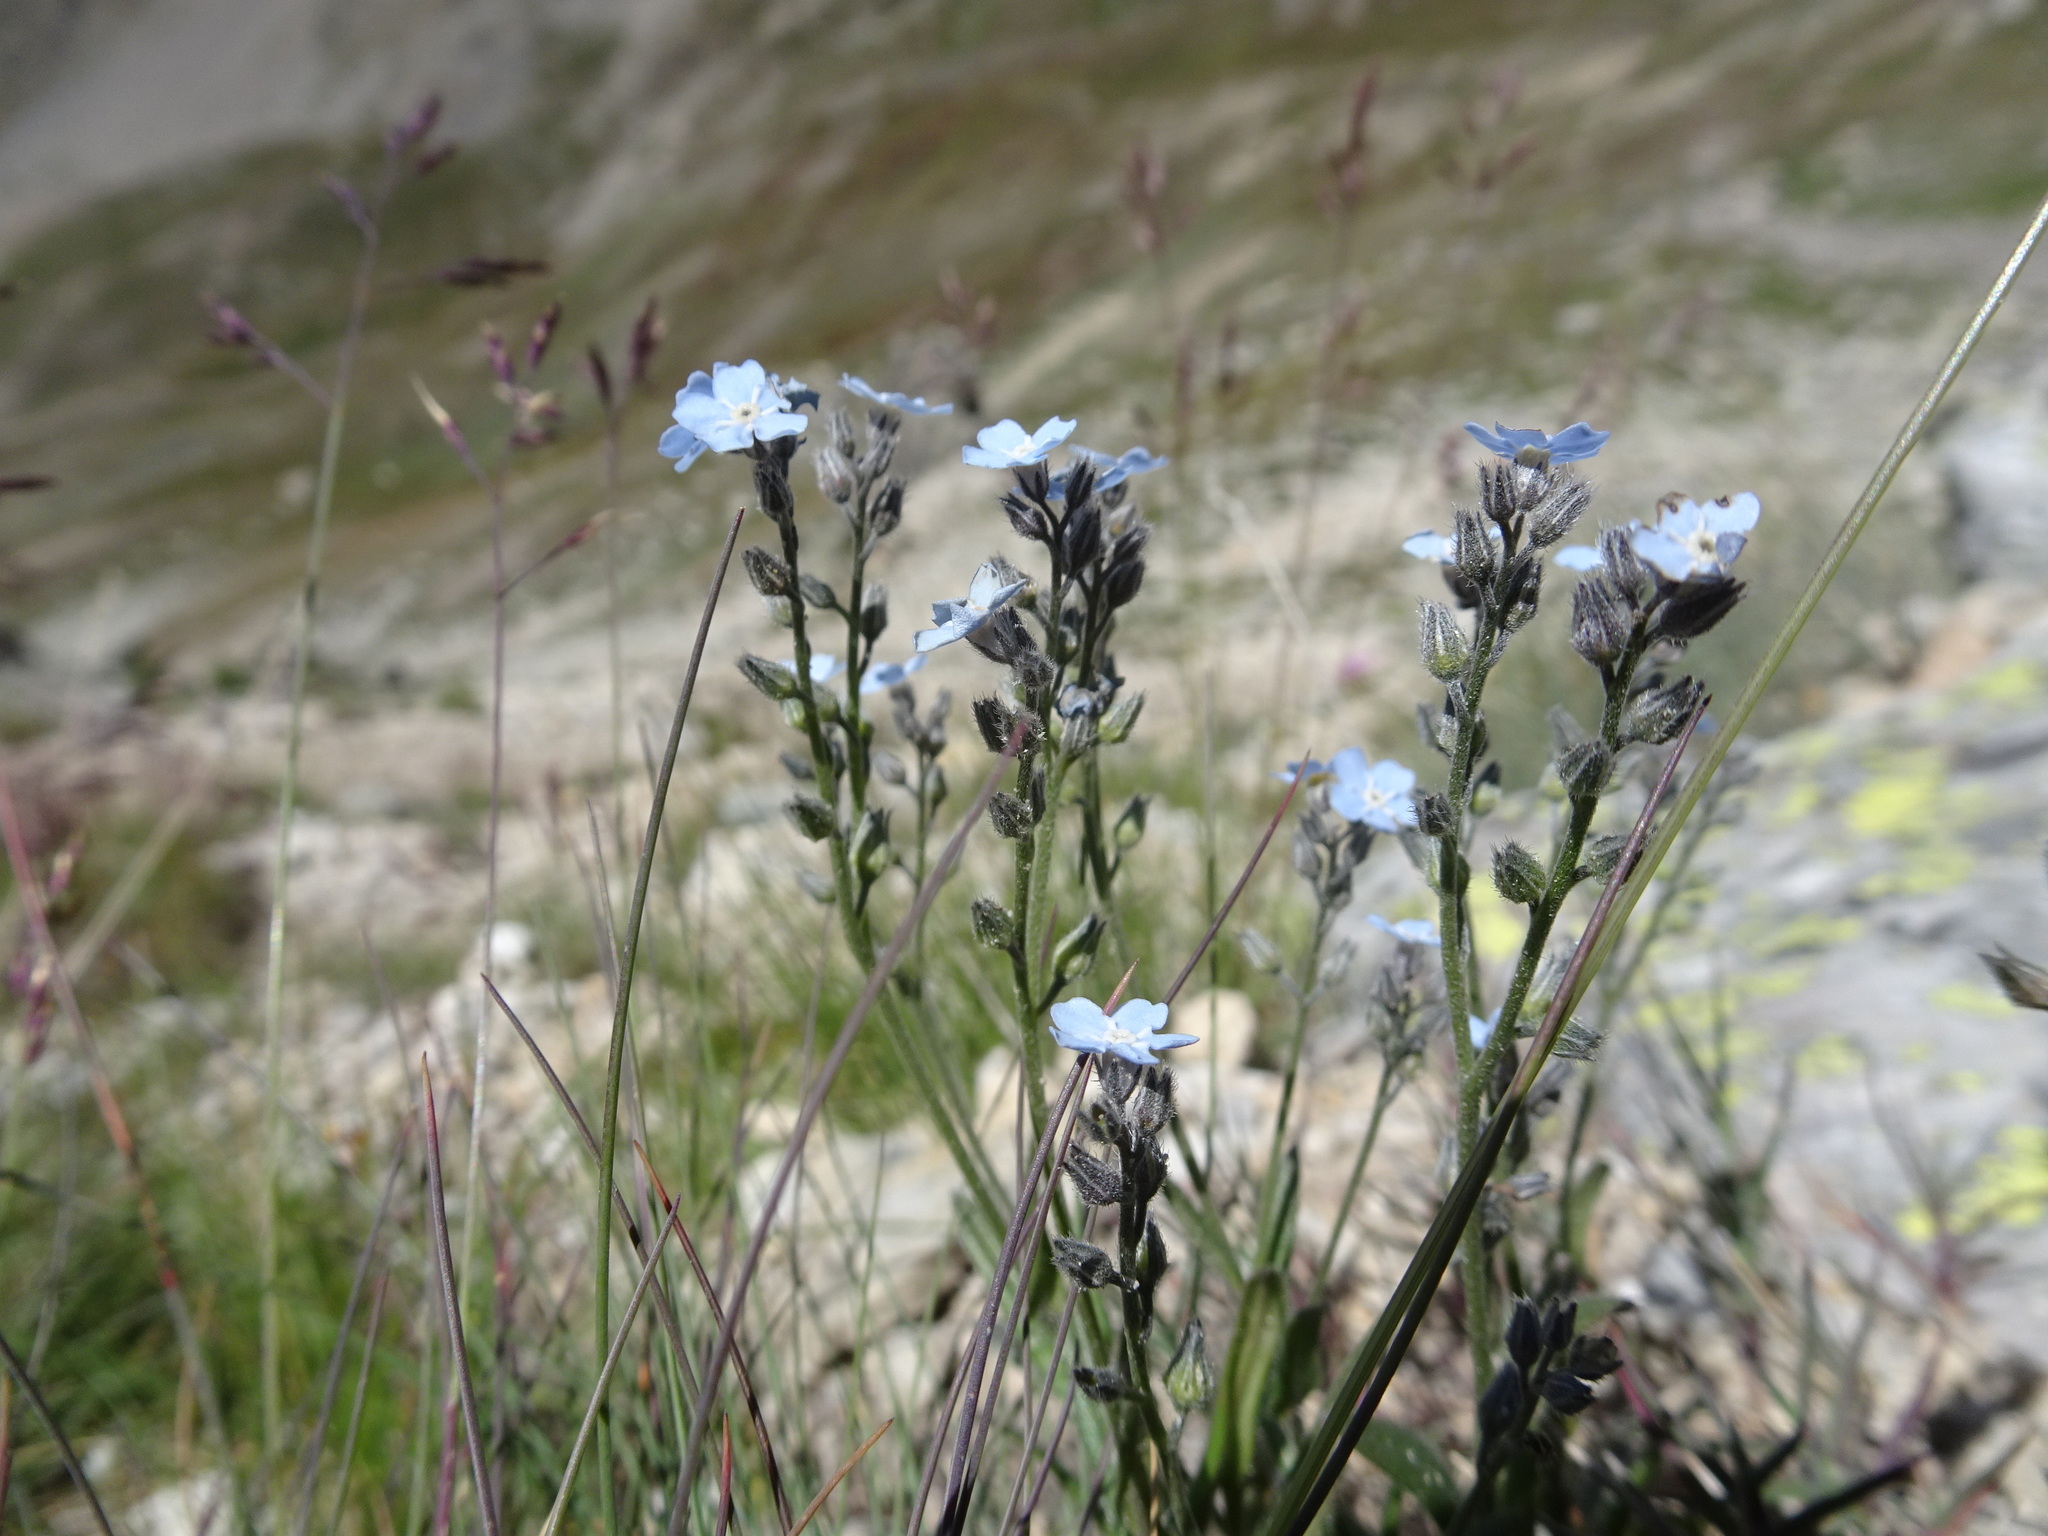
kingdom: Plantae
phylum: Tracheophyta
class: Magnoliopsida
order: Boraginales
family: Boraginaceae
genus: Myosotis
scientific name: Myosotis alpestris
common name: Alpine forget-me-not
